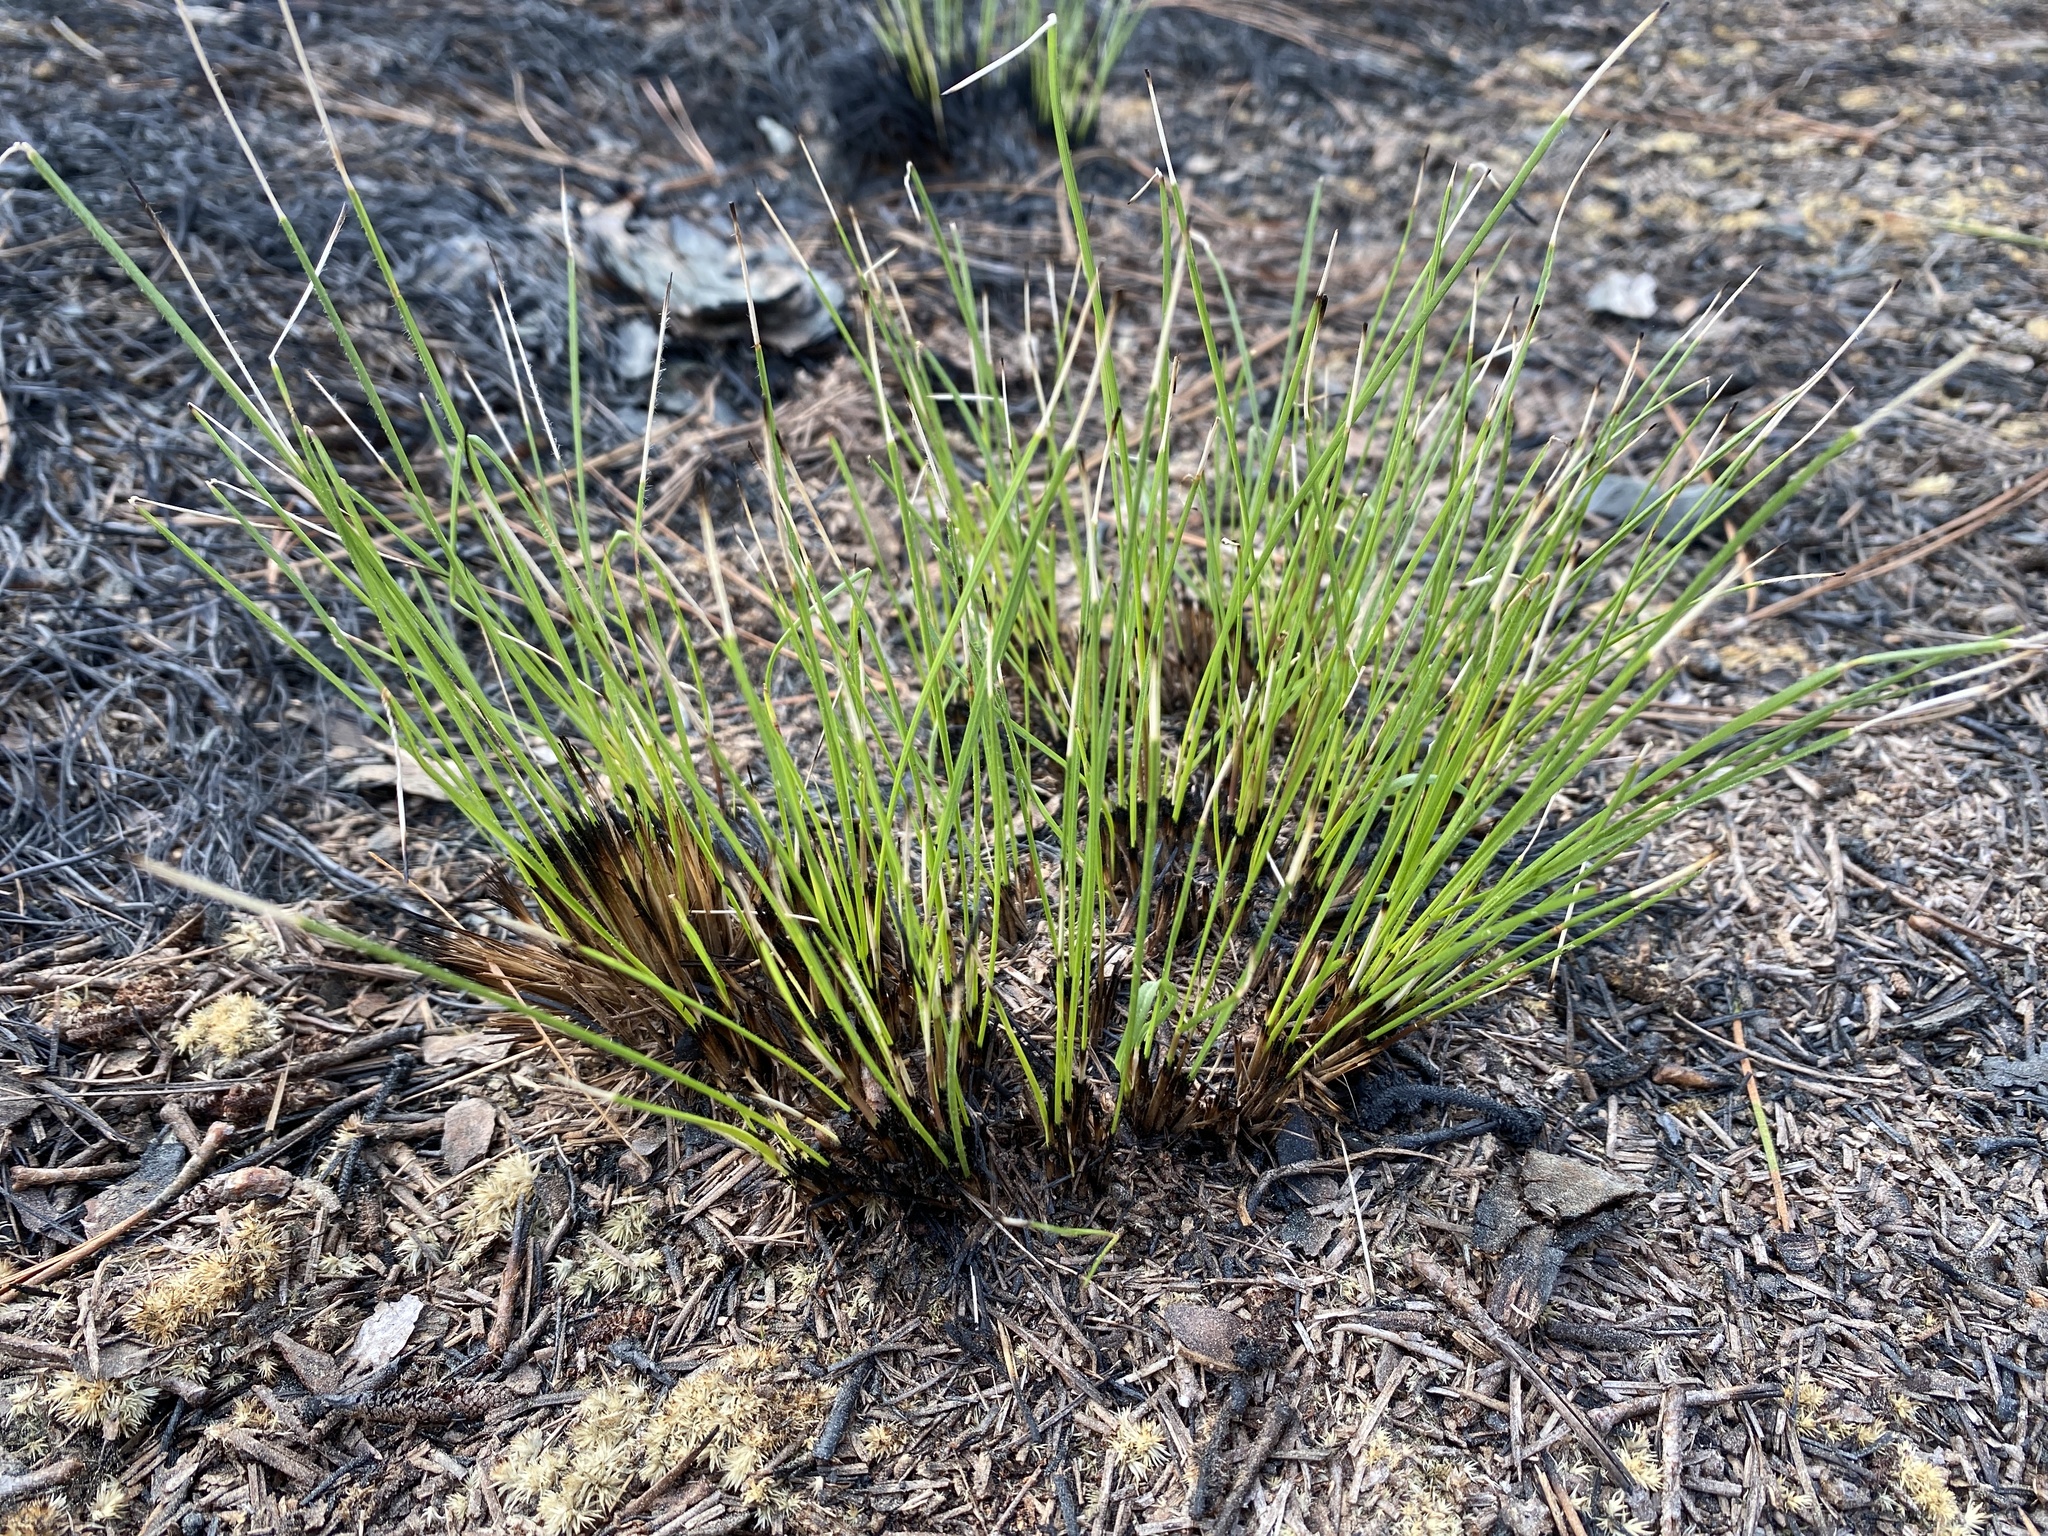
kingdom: Plantae
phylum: Tracheophyta
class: Liliopsida
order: Poales
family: Poaceae
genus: Aristida
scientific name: Aristida stricta
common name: Pineland three-awn
